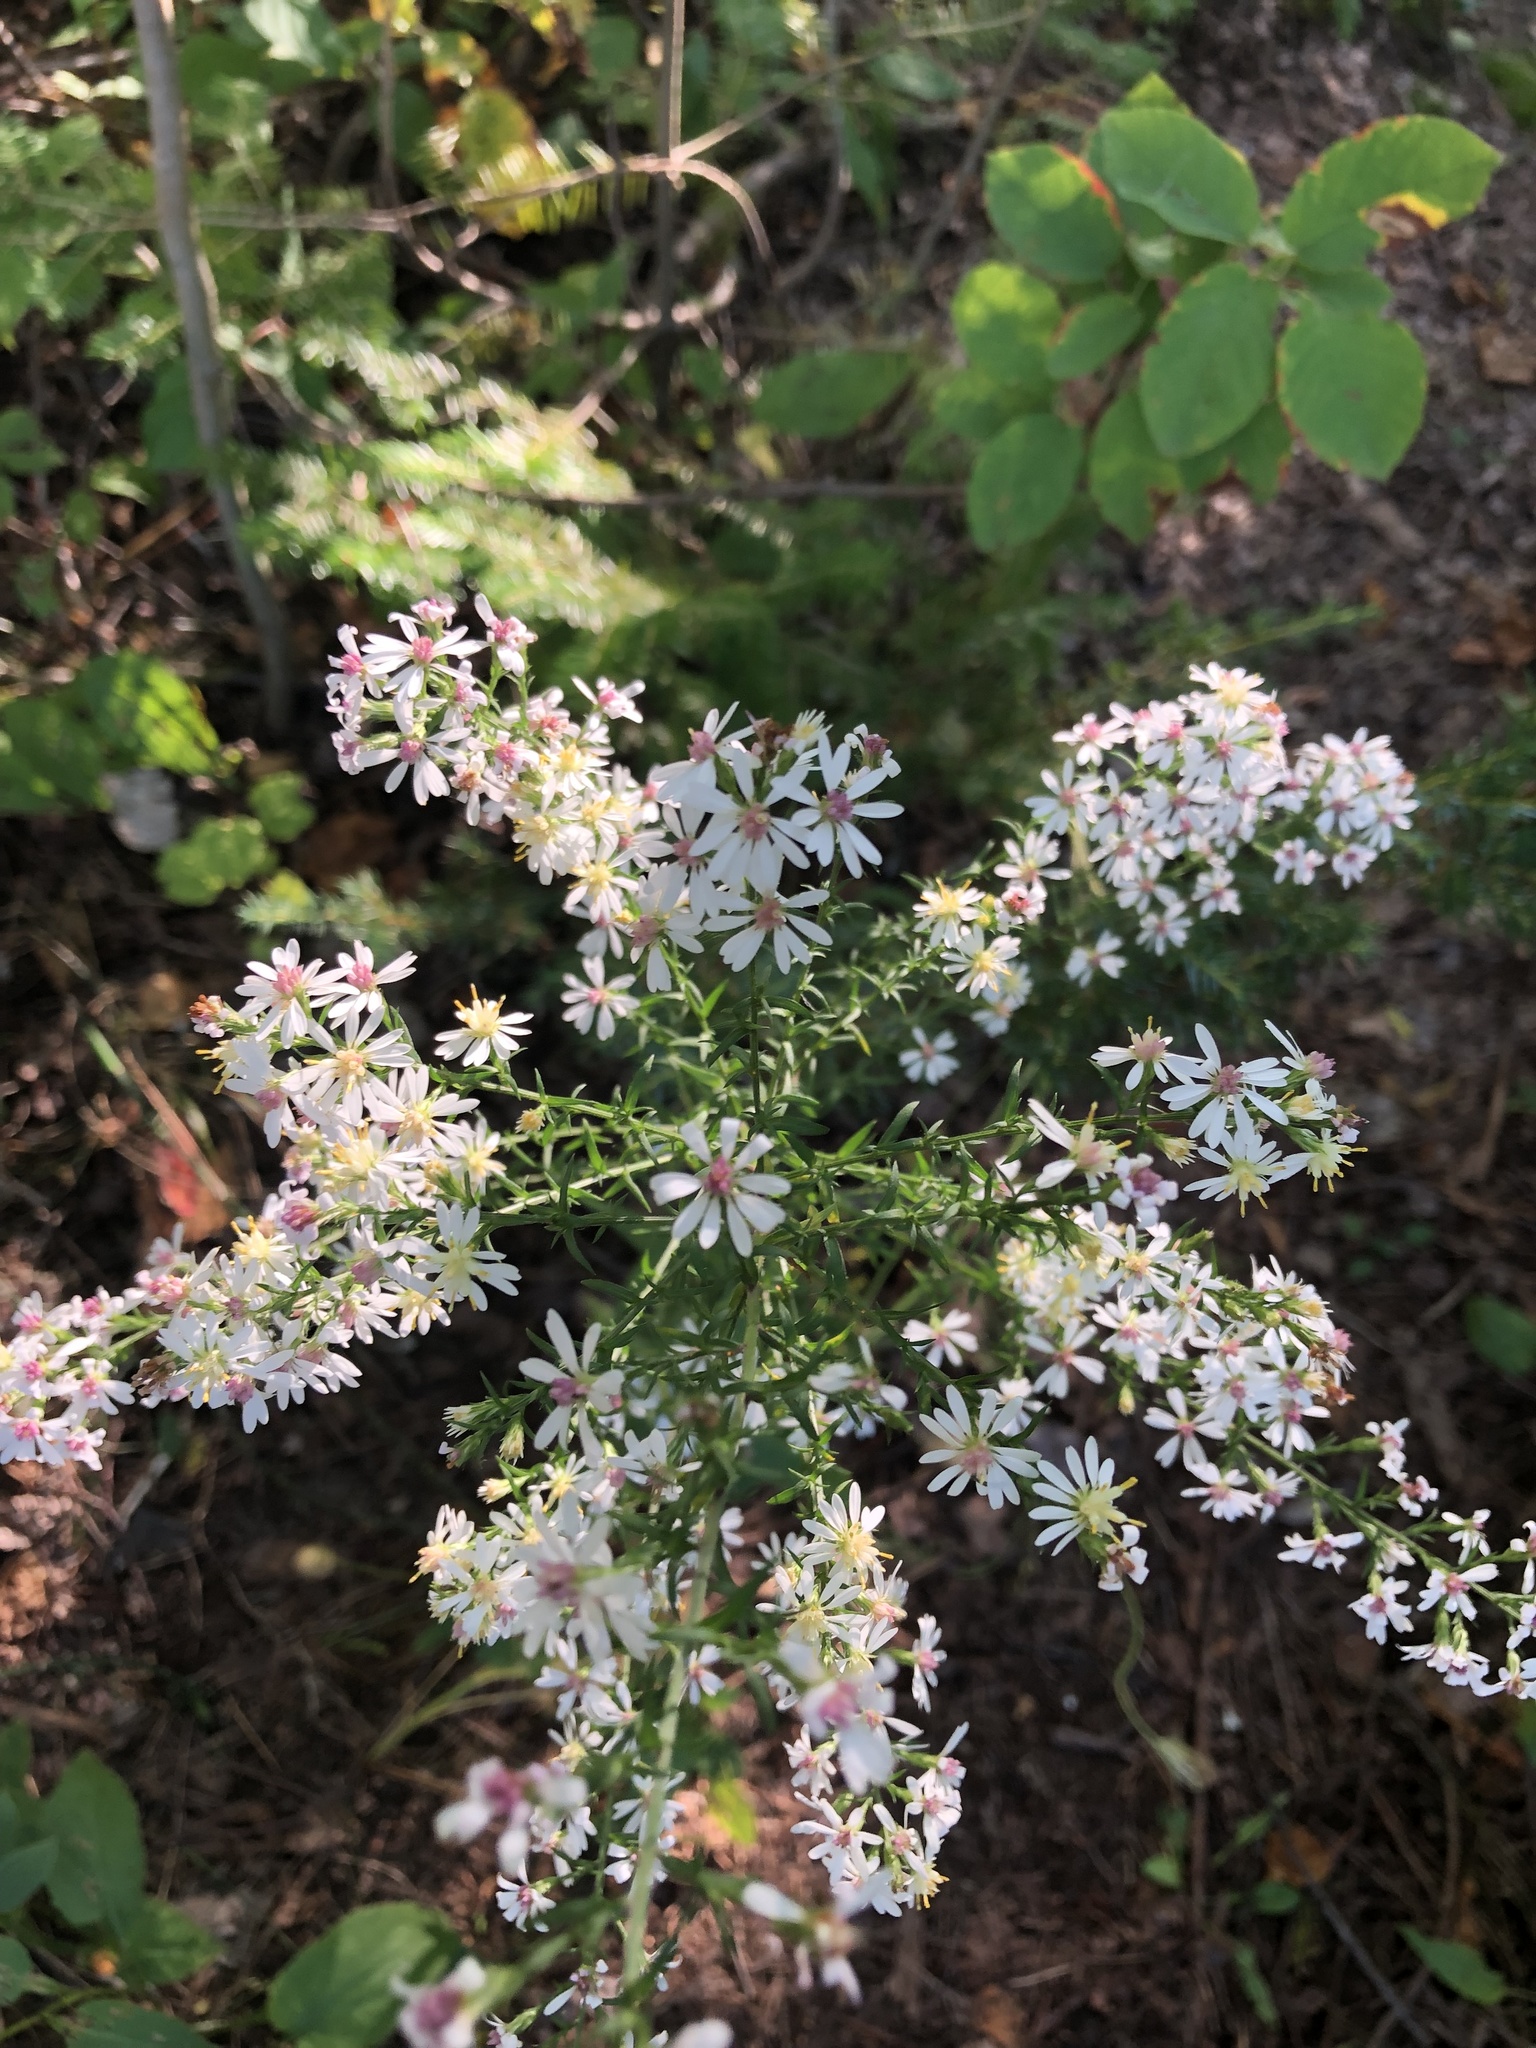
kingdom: Plantae
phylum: Tracheophyta
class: Magnoliopsida
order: Asterales
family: Asteraceae
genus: Symphyotrichum
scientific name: Symphyotrichum urophyllum
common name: Arrow-leaved aster
